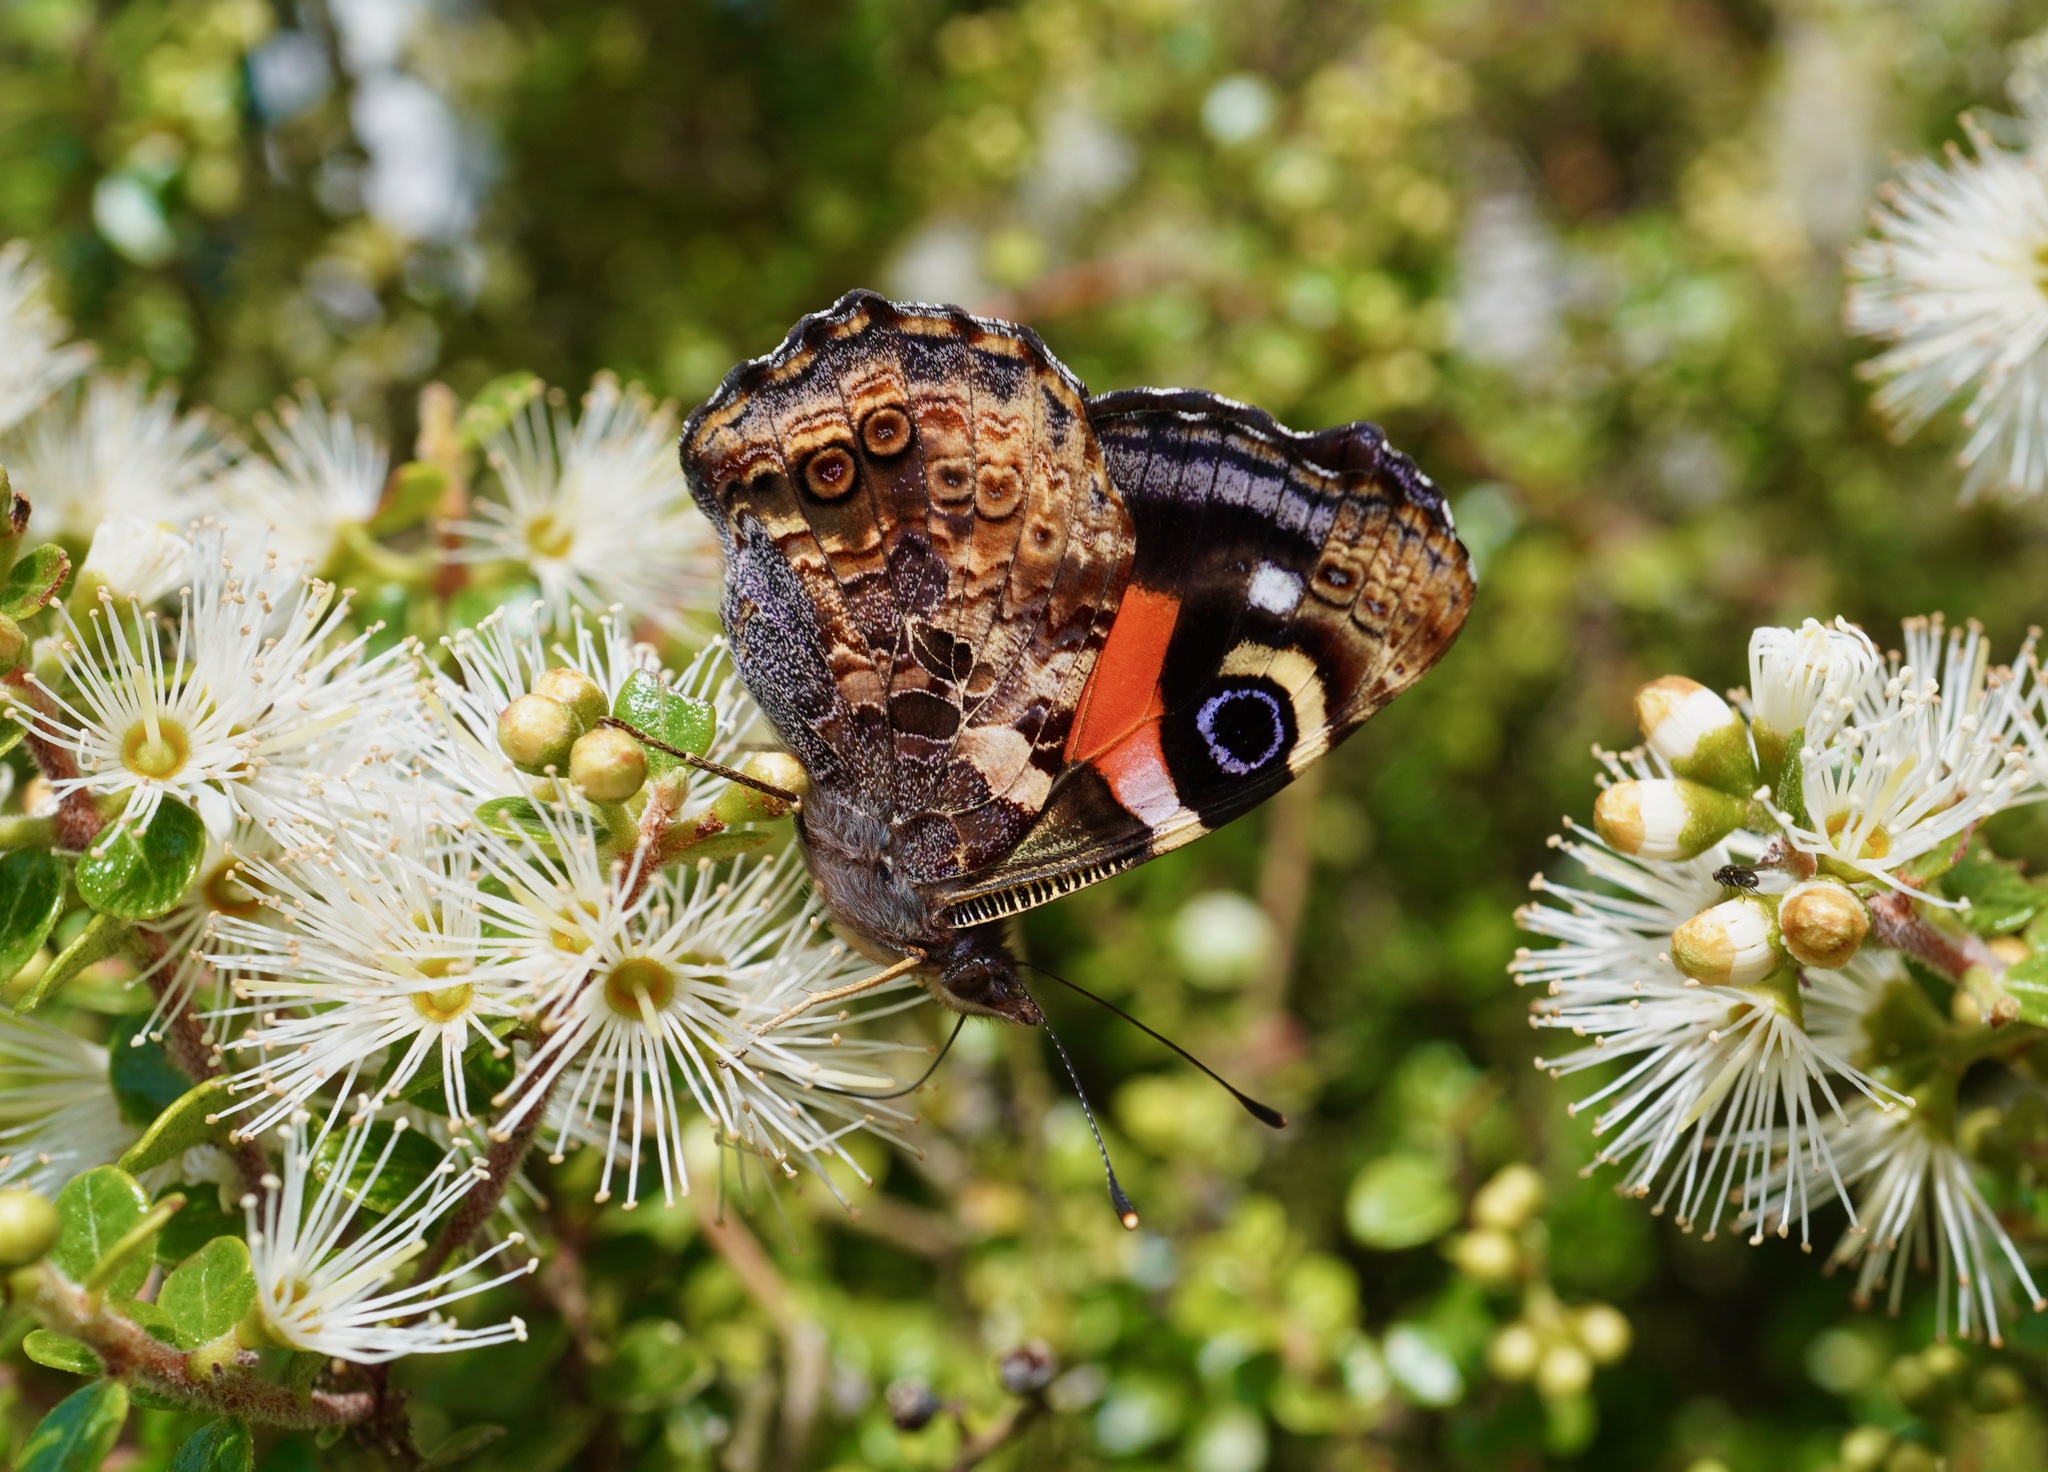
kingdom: Animalia
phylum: Arthropoda
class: Insecta
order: Lepidoptera
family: Nymphalidae
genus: Vanessa
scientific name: Vanessa gonerilla
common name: New zealand red admiral
